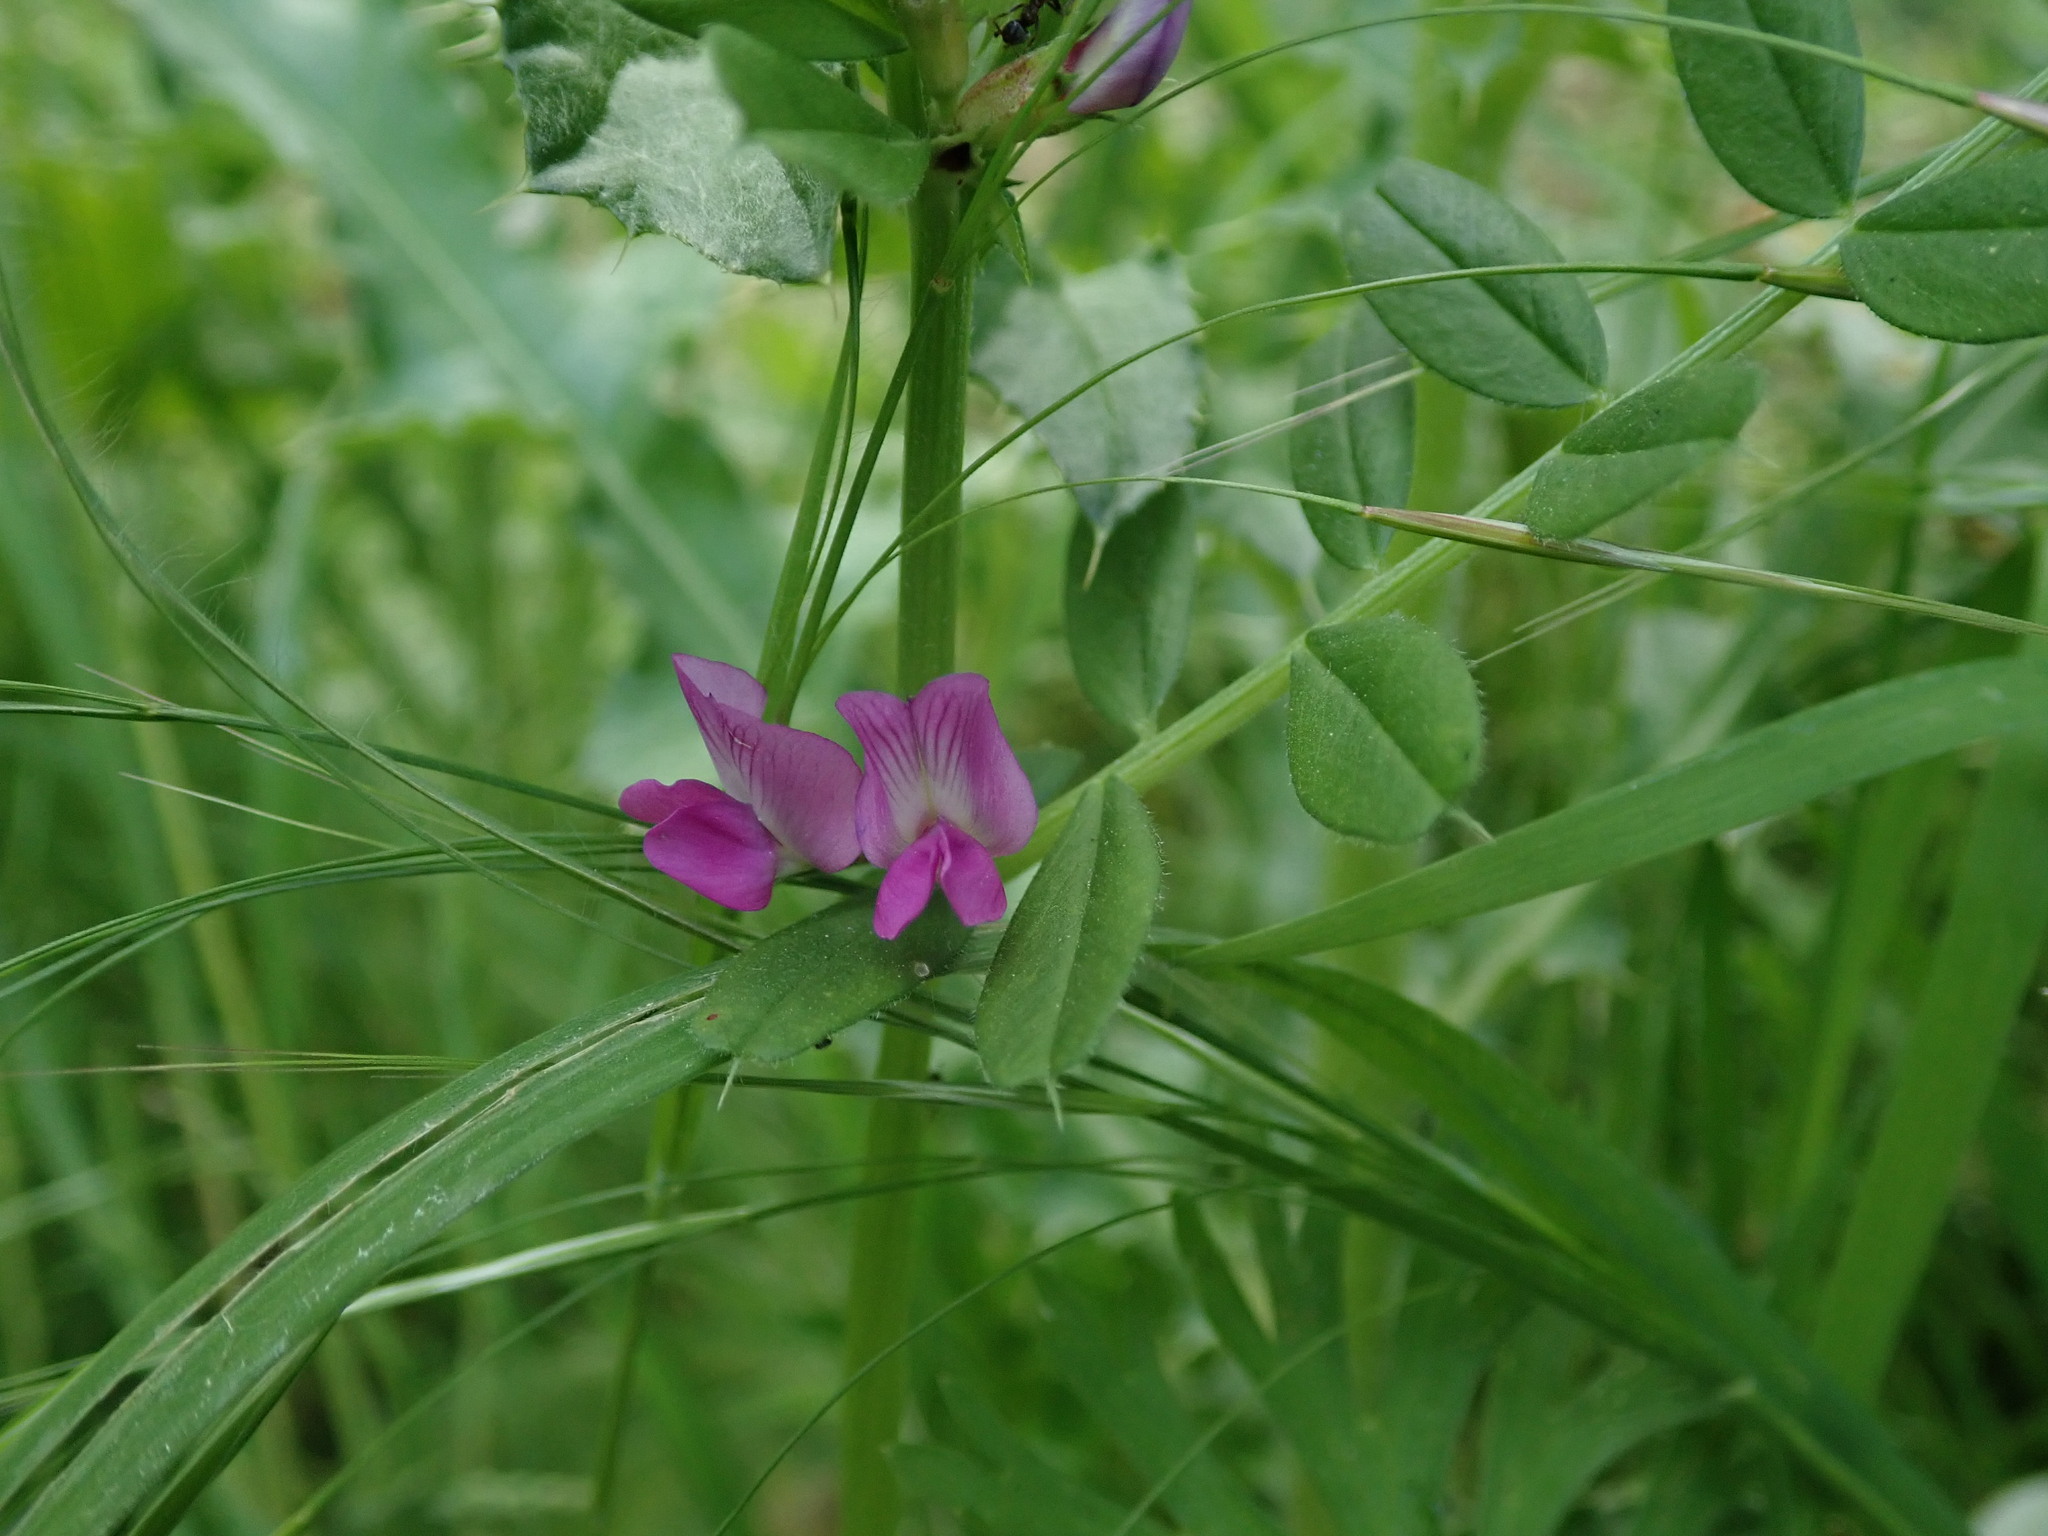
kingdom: Plantae
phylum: Tracheophyta
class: Magnoliopsida
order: Fabales
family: Fabaceae
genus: Vicia
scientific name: Vicia sativa
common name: Garden vetch
